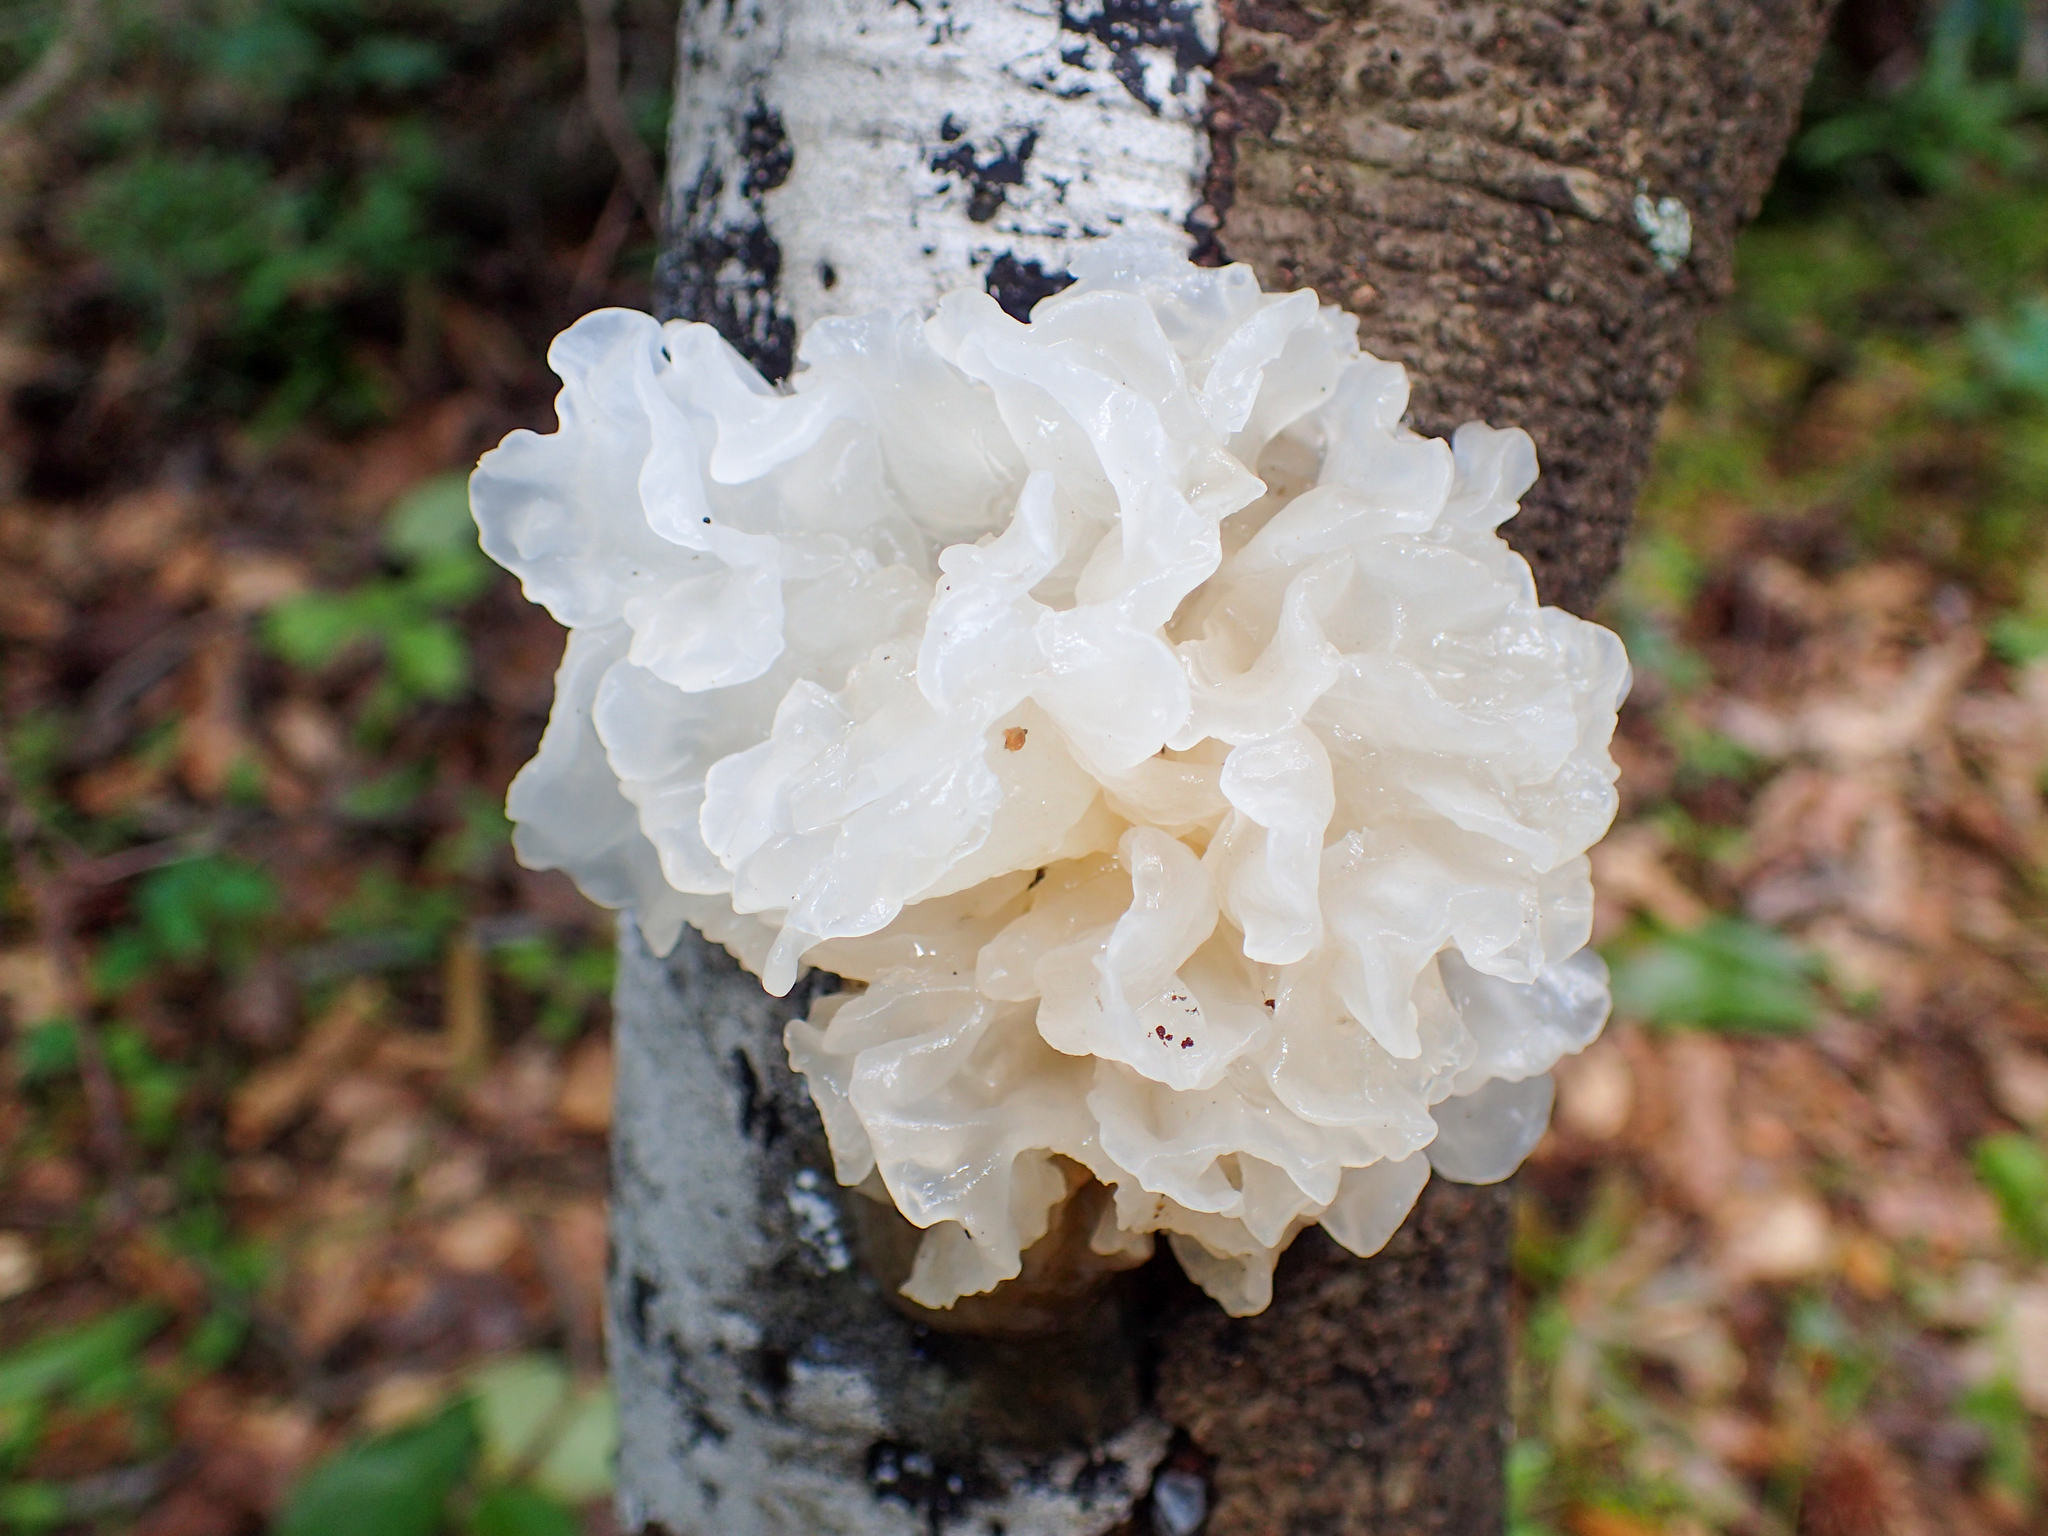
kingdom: Fungi
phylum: Basidiomycota
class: Tremellomycetes
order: Tremellales
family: Tremellaceae
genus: Tremella
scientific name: Tremella fuciformis
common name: Snow fungus
